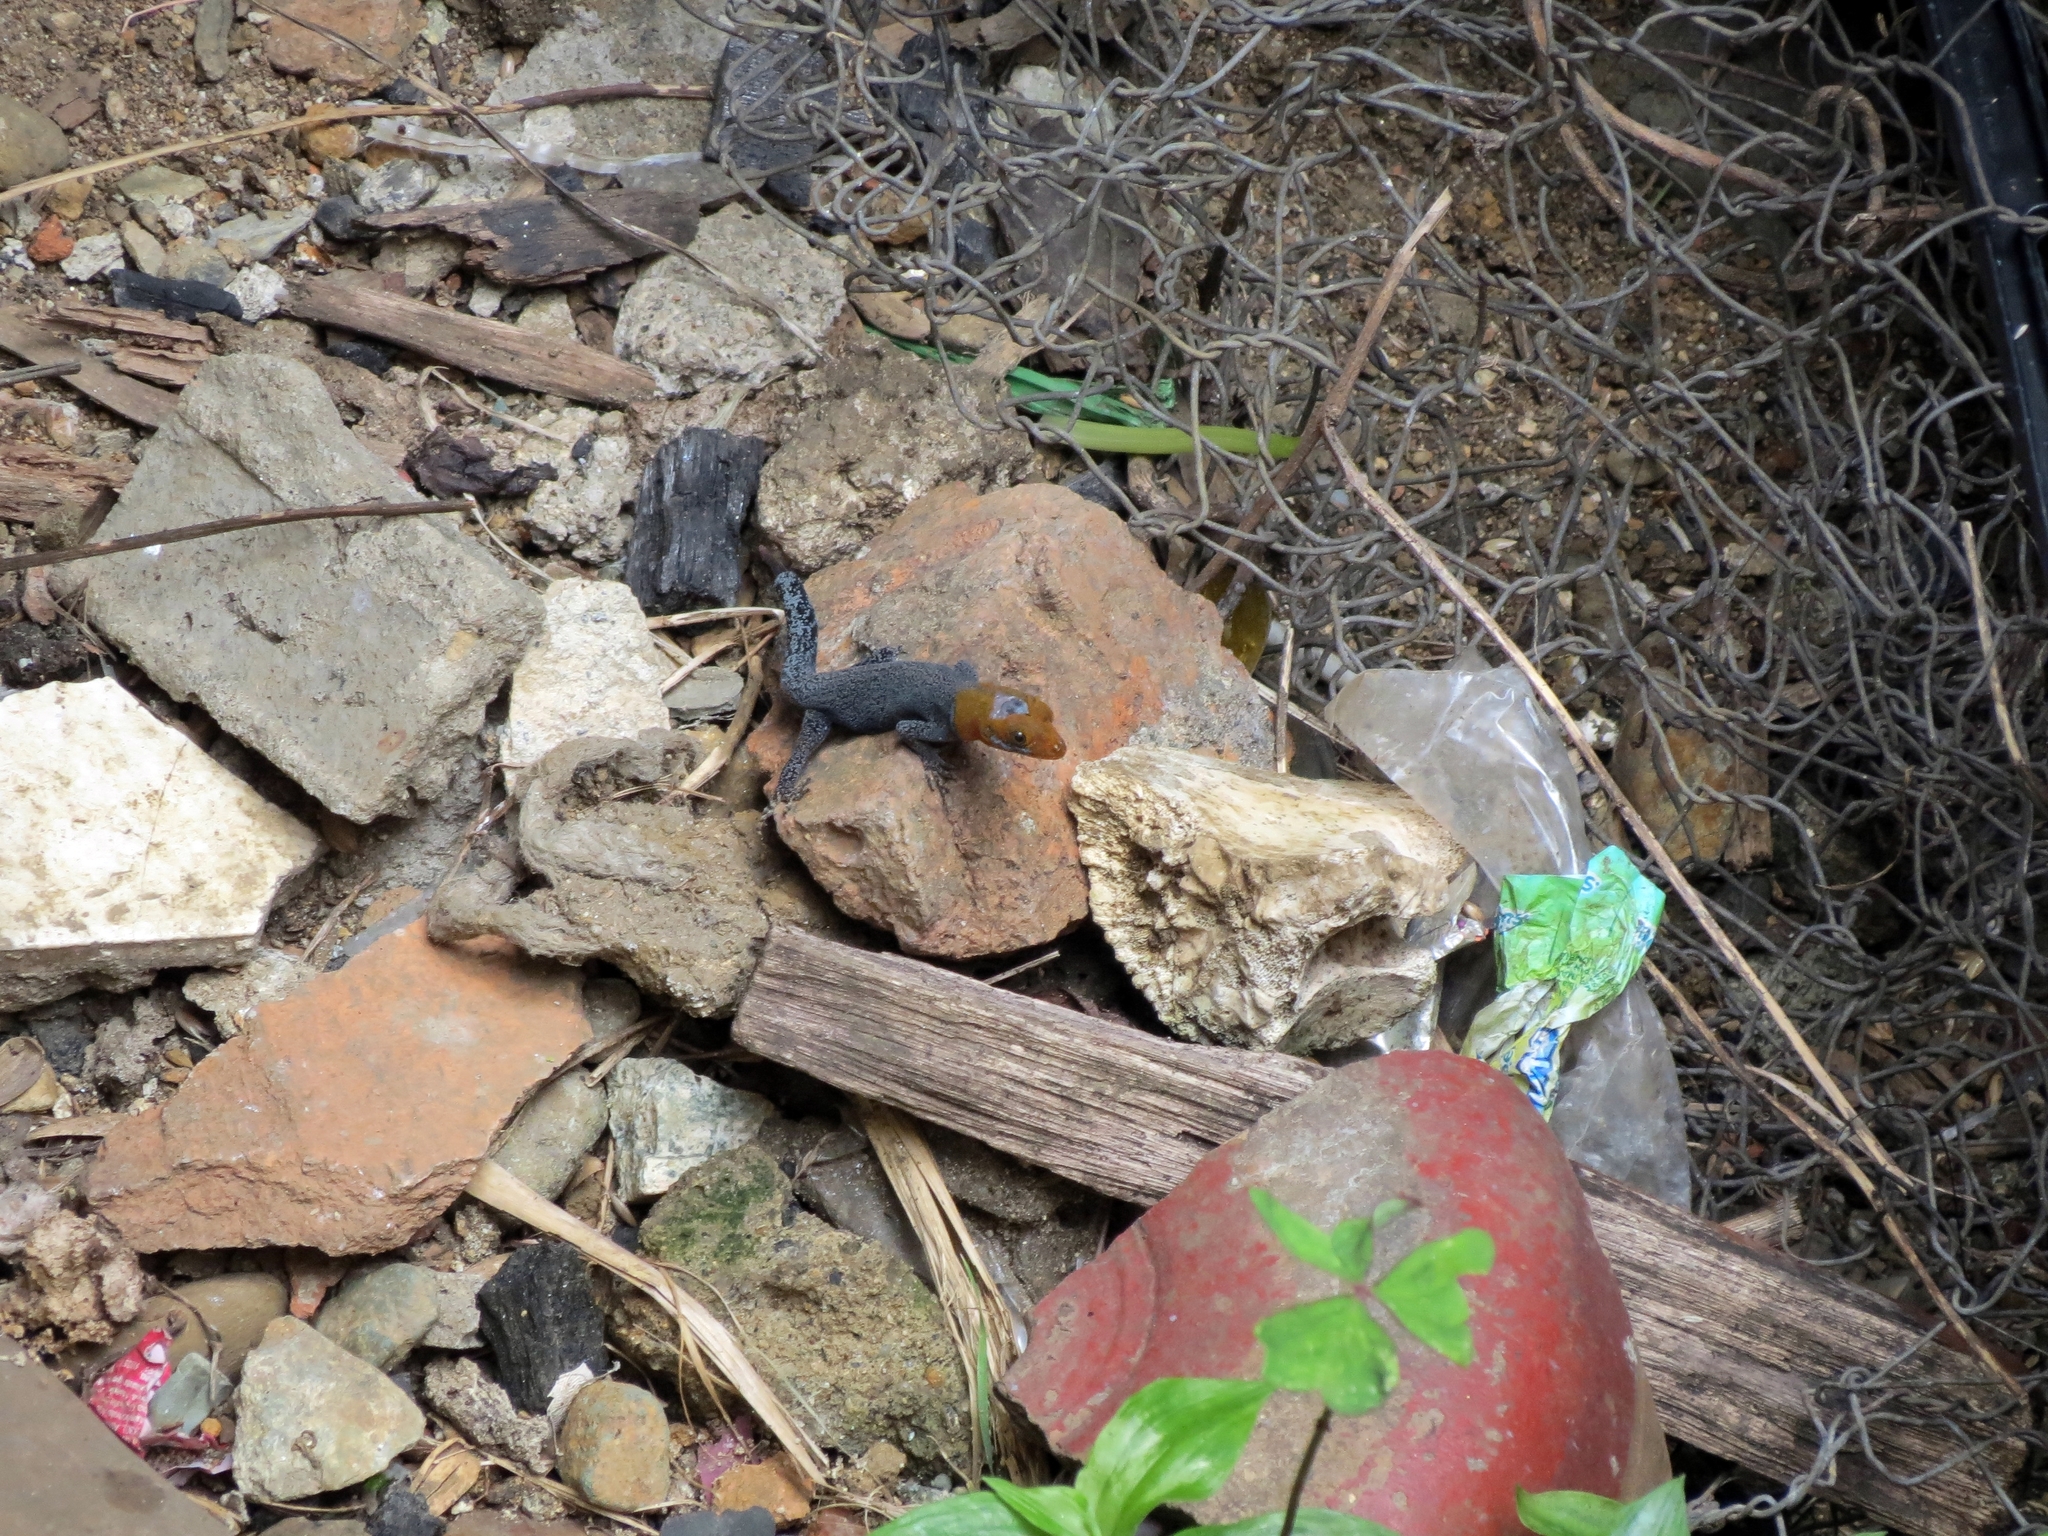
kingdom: Animalia
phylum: Chordata
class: Squamata
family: Sphaerodactylidae
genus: Gonatodes
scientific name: Gonatodes albogularis
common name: Yellow-headed gecko
